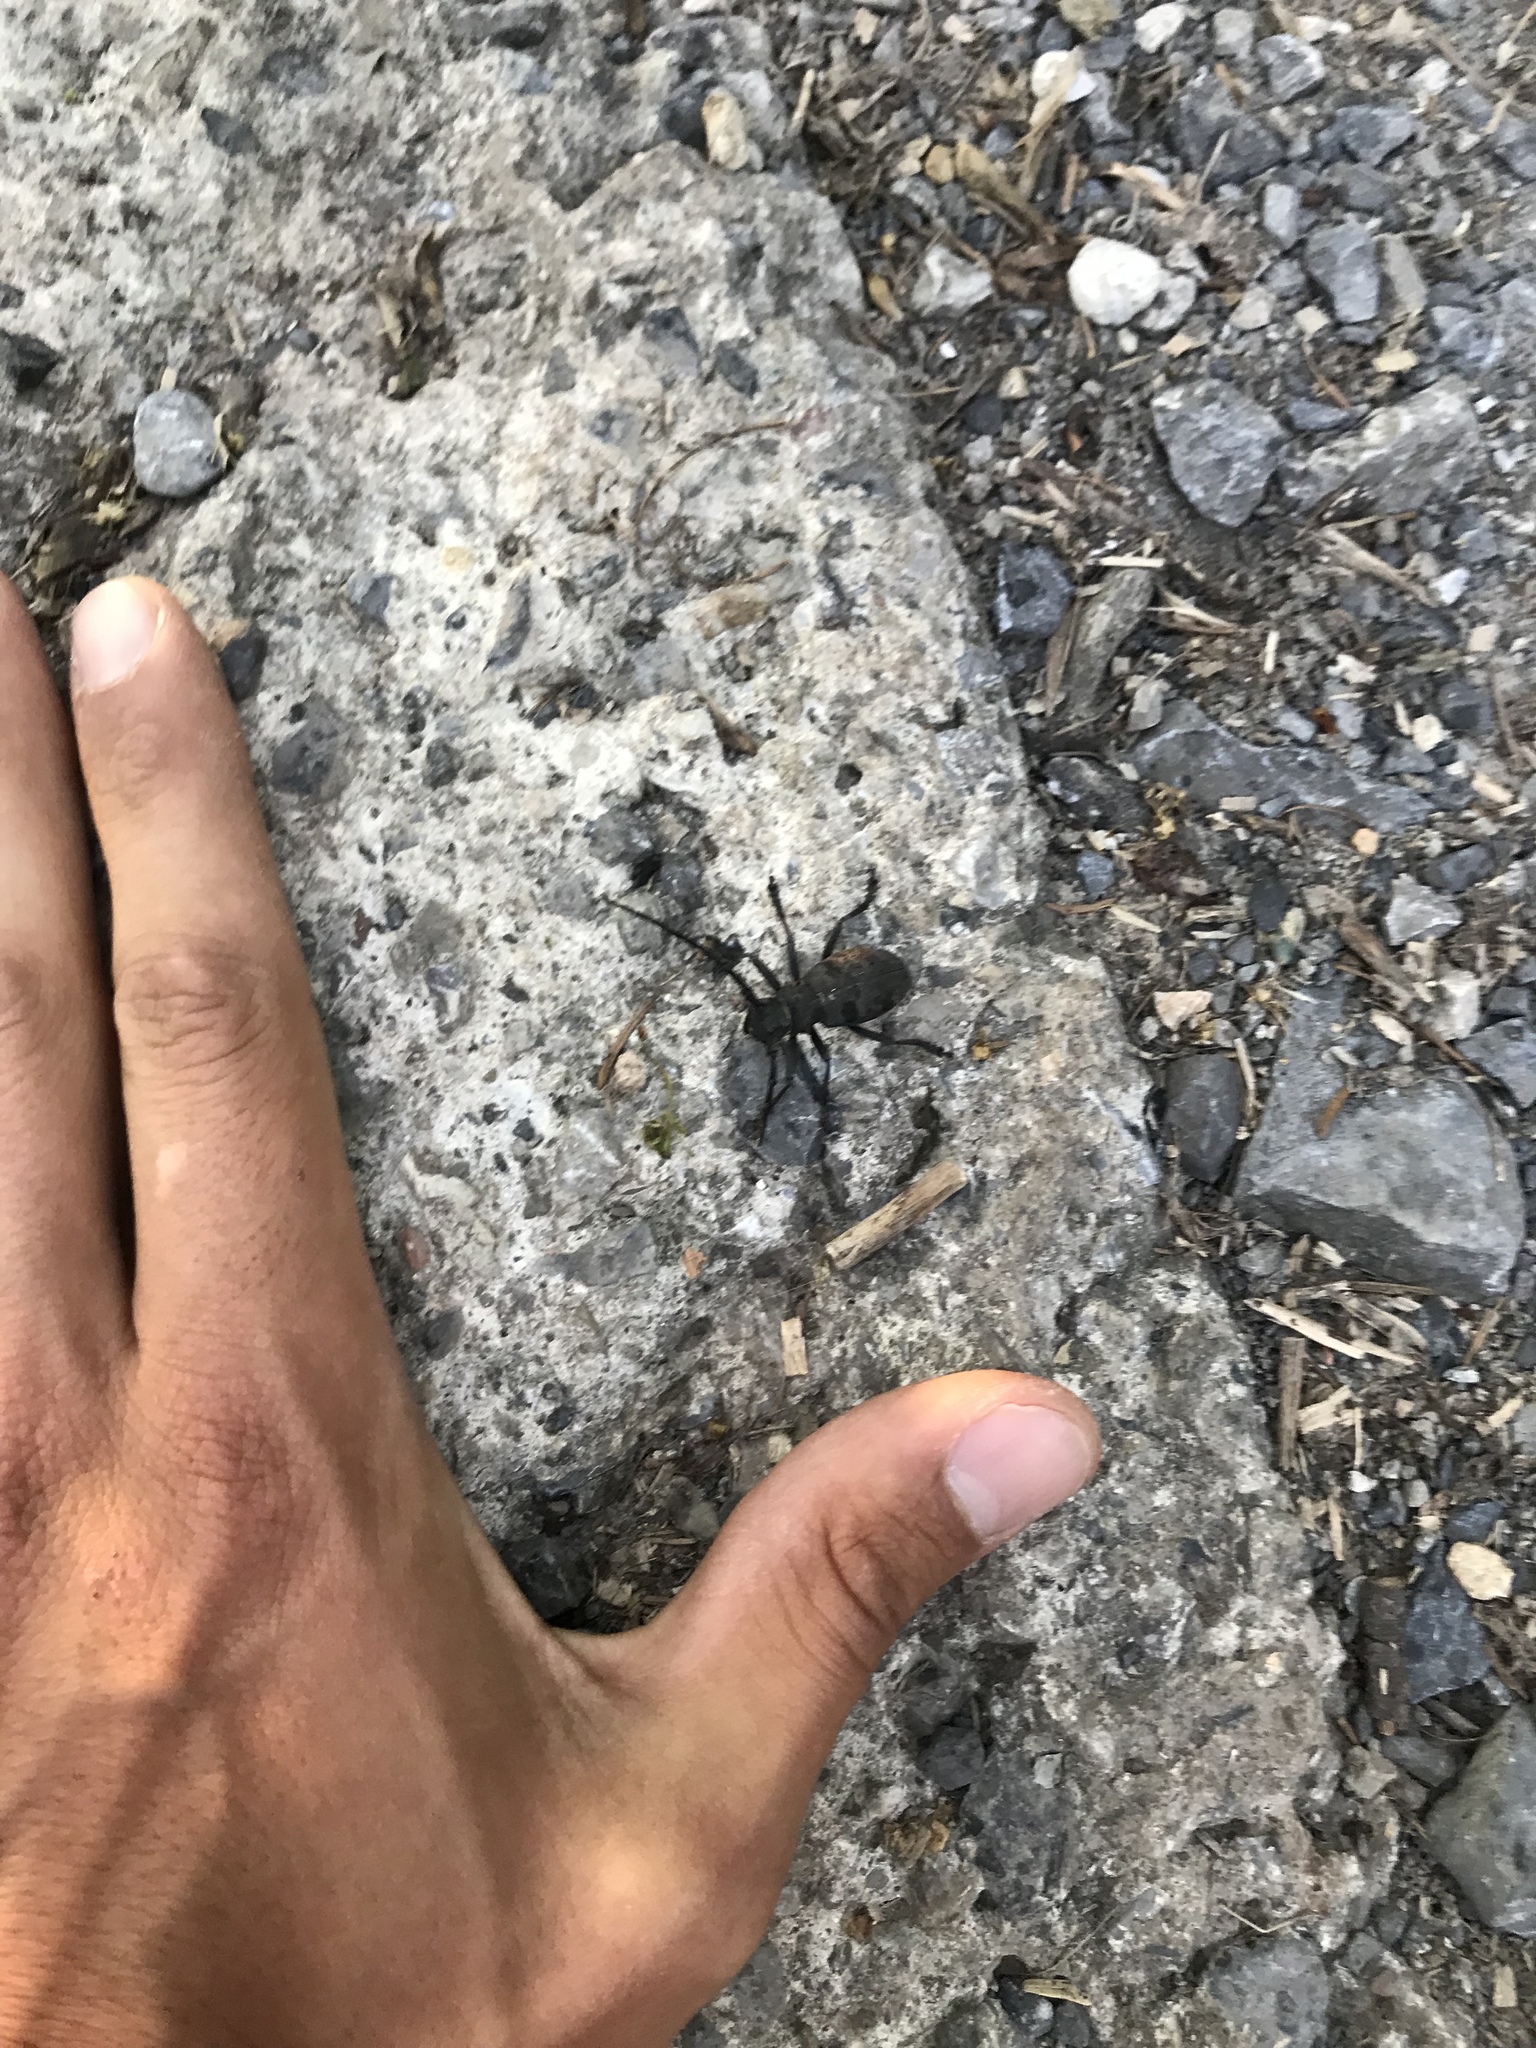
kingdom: Animalia
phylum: Arthropoda
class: Insecta
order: Coleoptera
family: Cerambycidae
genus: Morimus
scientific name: Morimus asper
